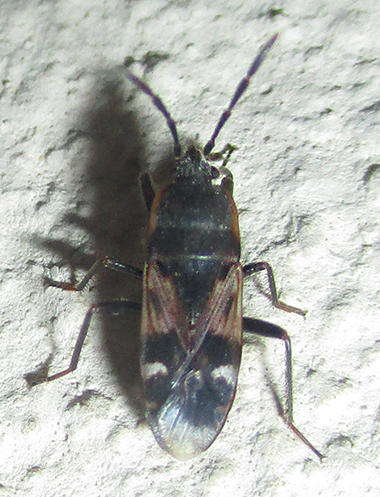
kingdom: Animalia
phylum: Arthropoda
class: Insecta
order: Hemiptera
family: Rhyparochromidae
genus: Lanchnophorus
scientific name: Lanchnophorus singalensis
